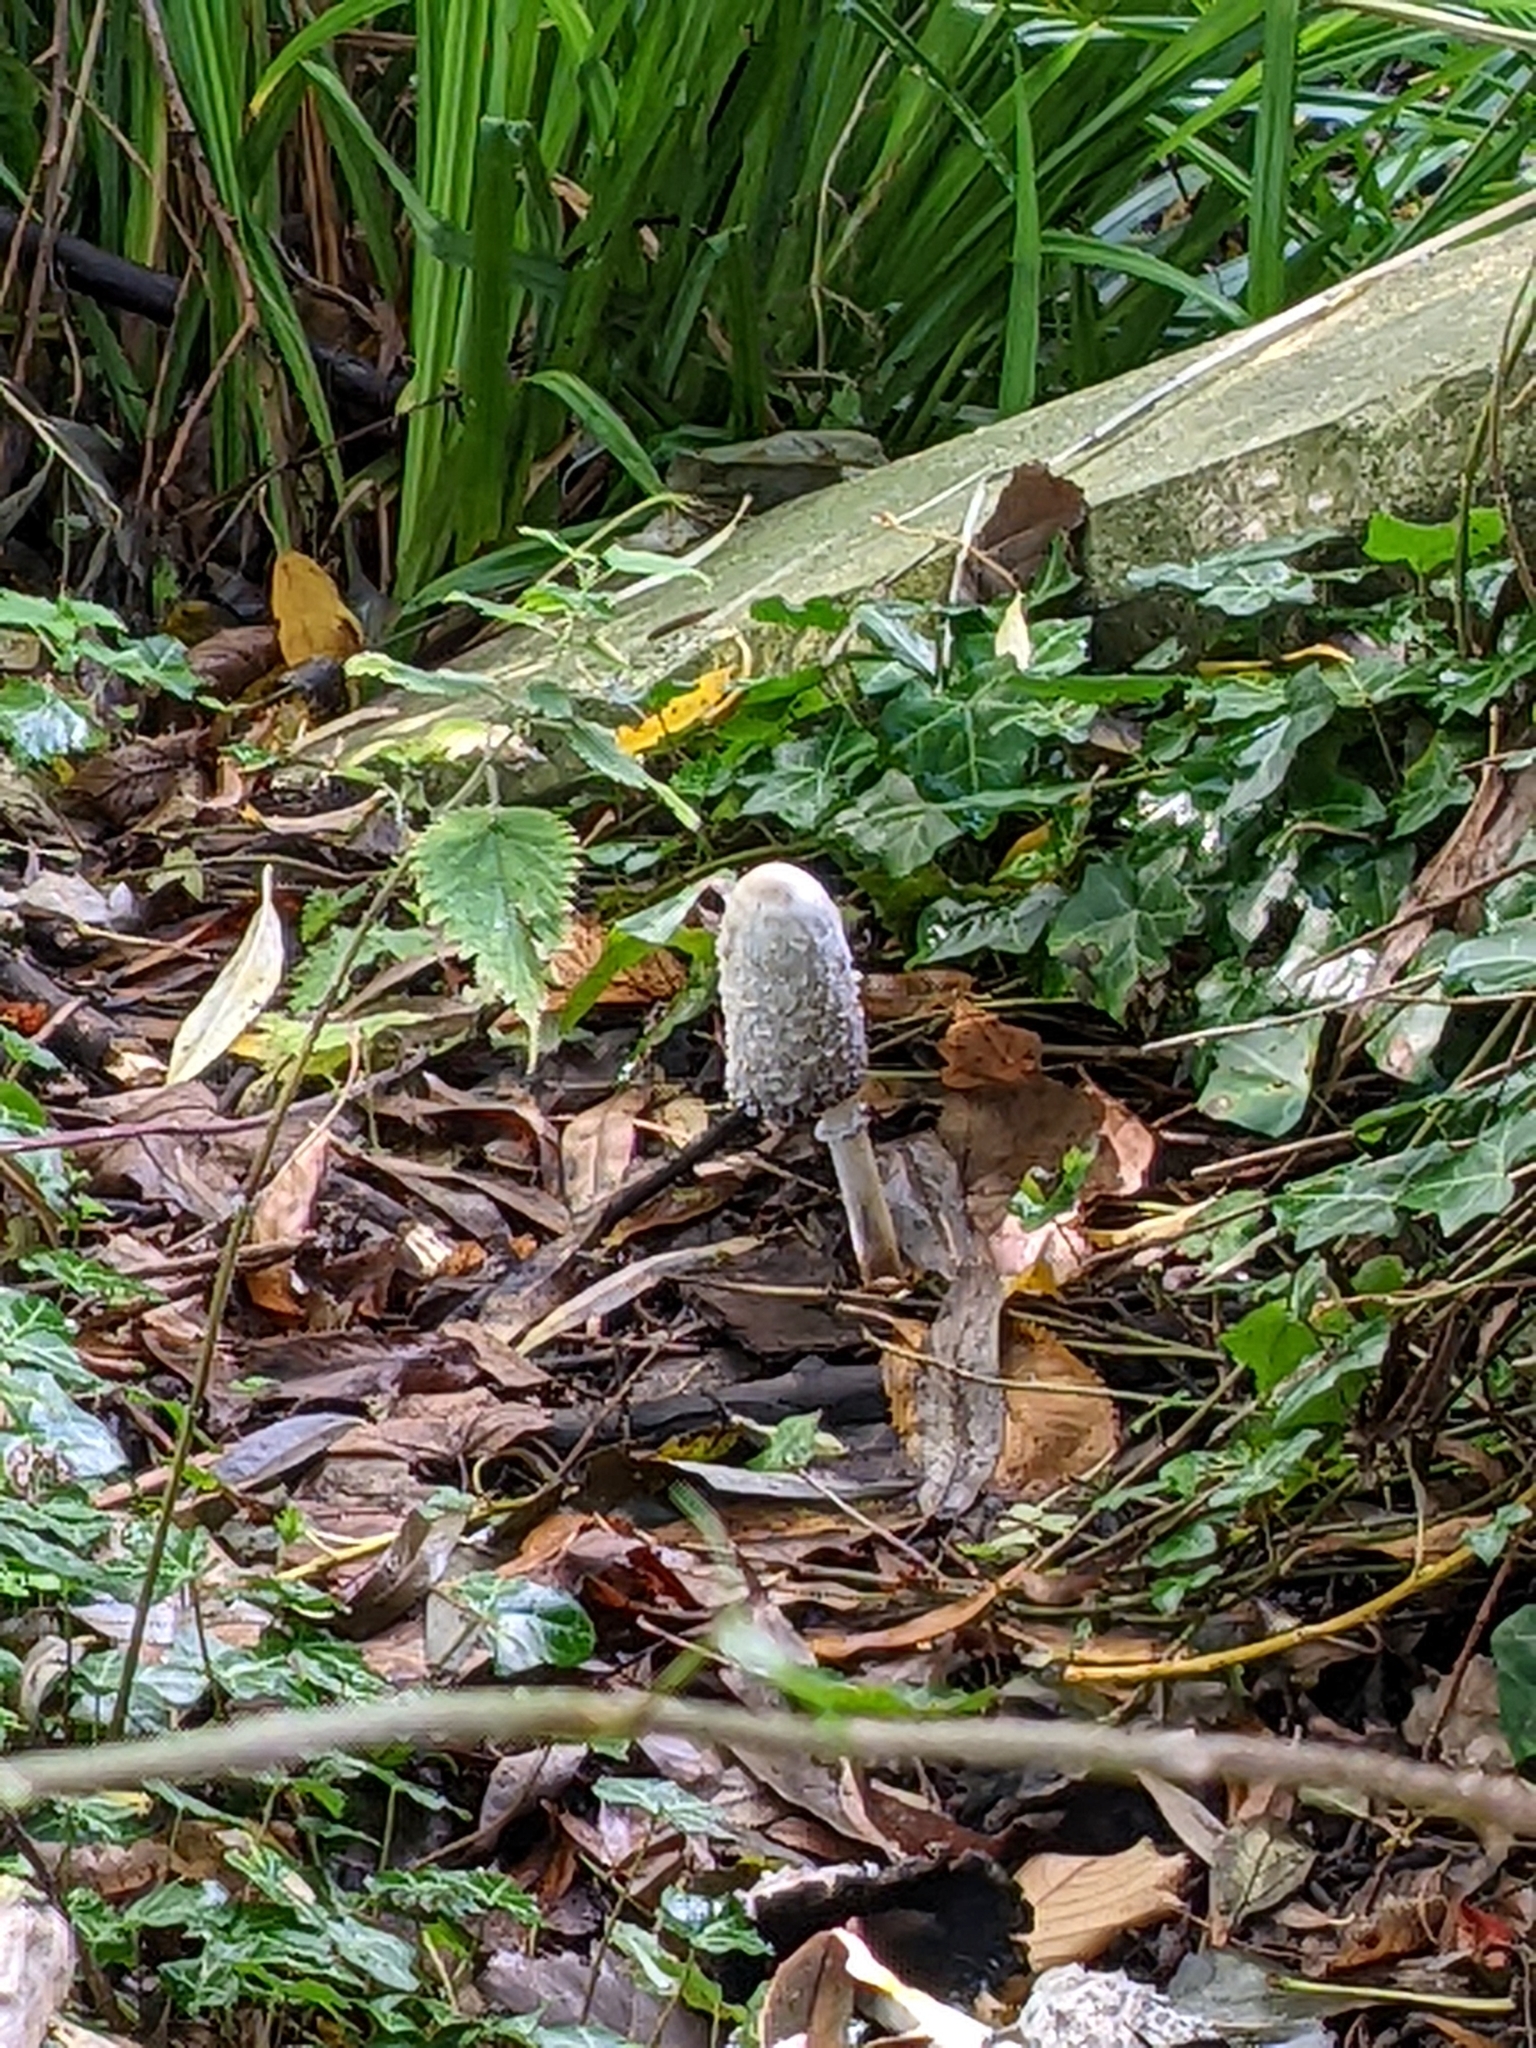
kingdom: Fungi
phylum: Basidiomycota
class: Agaricomycetes
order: Agaricales
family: Agaricaceae
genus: Coprinus
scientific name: Coprinus comatus
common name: Lawyer's wig
